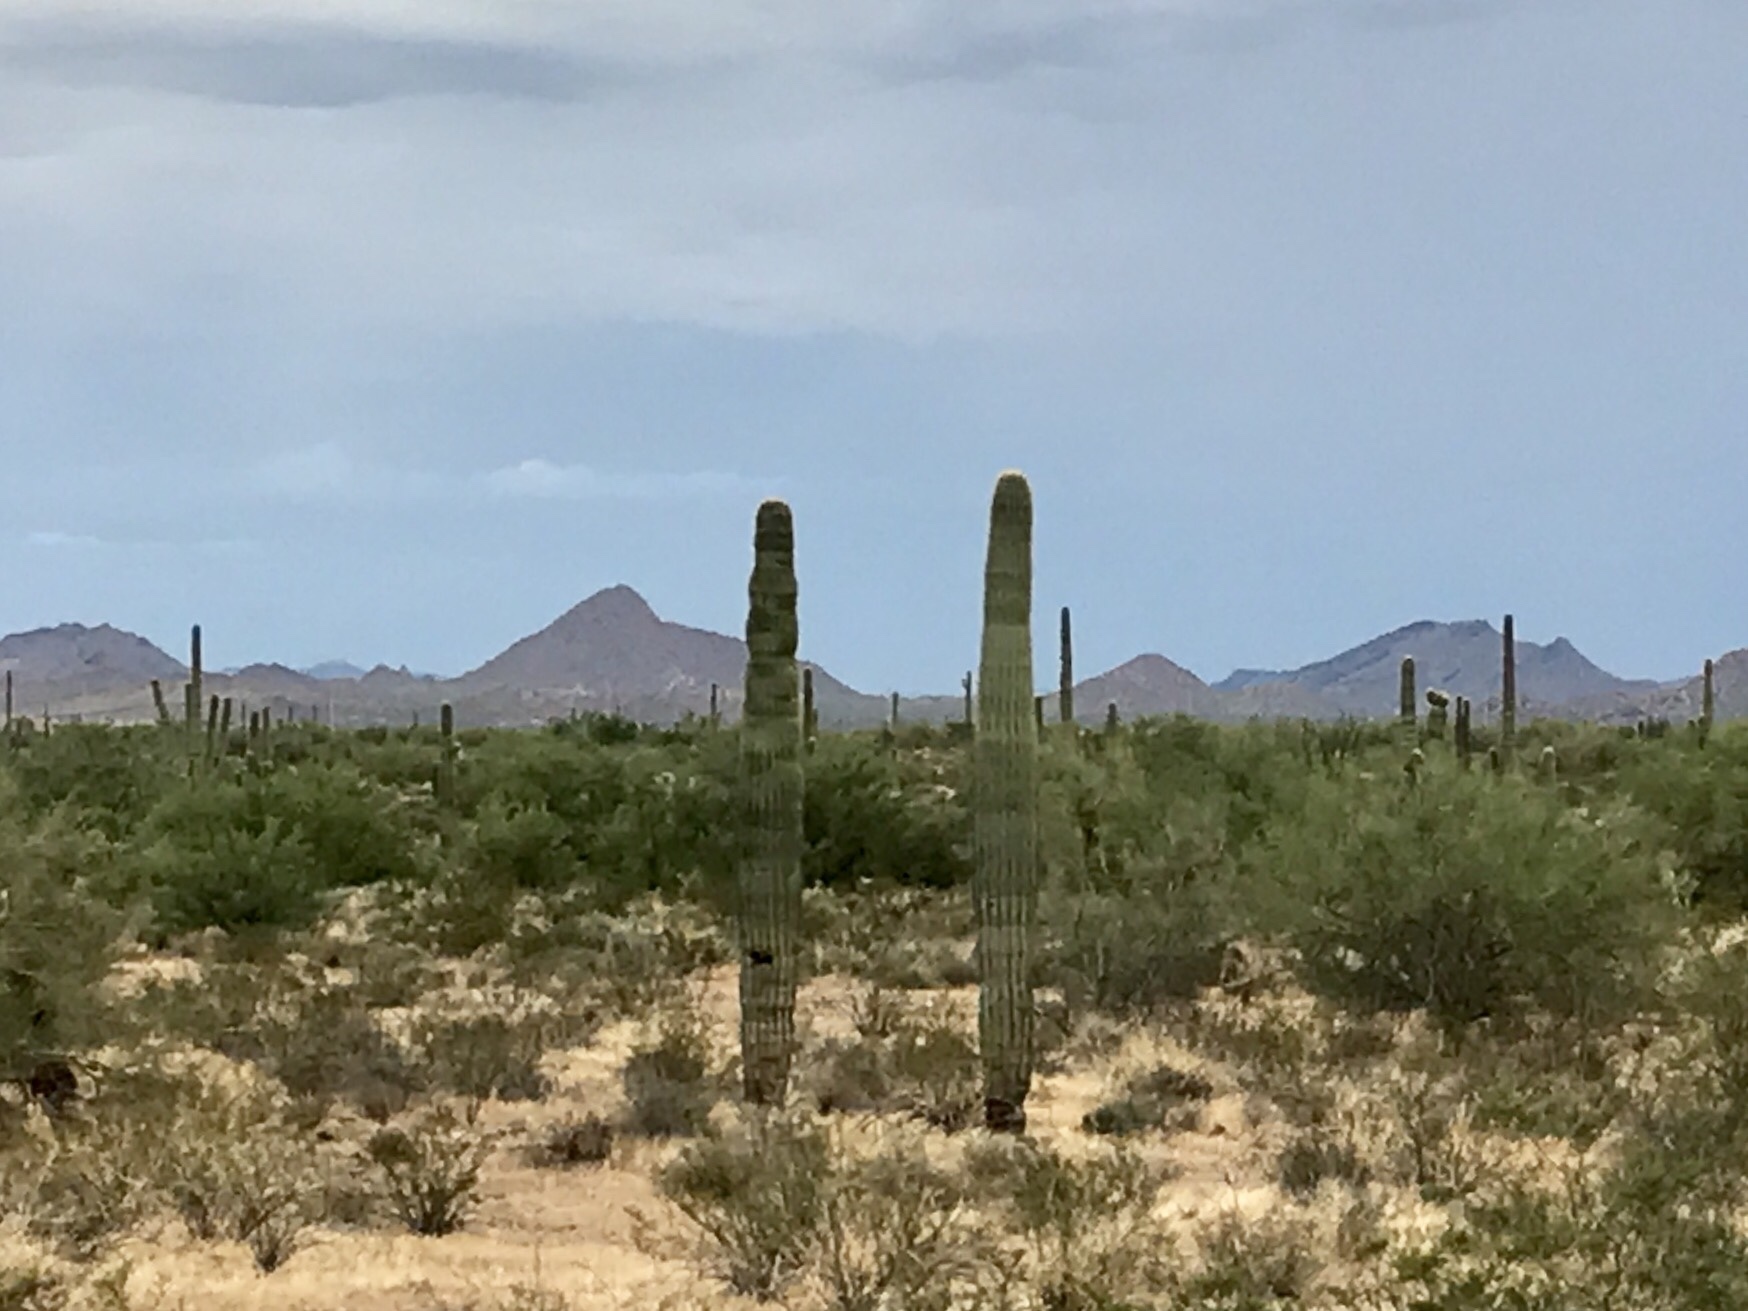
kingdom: Plantae
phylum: Tracheophyta
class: Magnoliopsida
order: Caryophyllales
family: Cactaceae
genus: Carnegiea
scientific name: Carnegiea gigantea
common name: Saguaro
